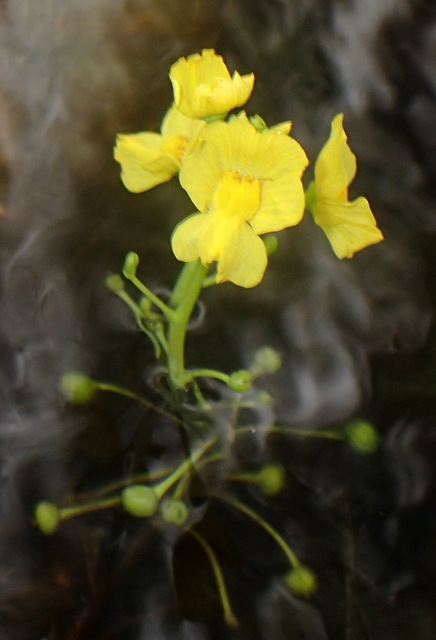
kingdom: Plantae
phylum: Tracheophyta
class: Magnoliopsida
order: Lamiales
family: Lentibulariaceae
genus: Utricularia
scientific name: Utricularia floridana
